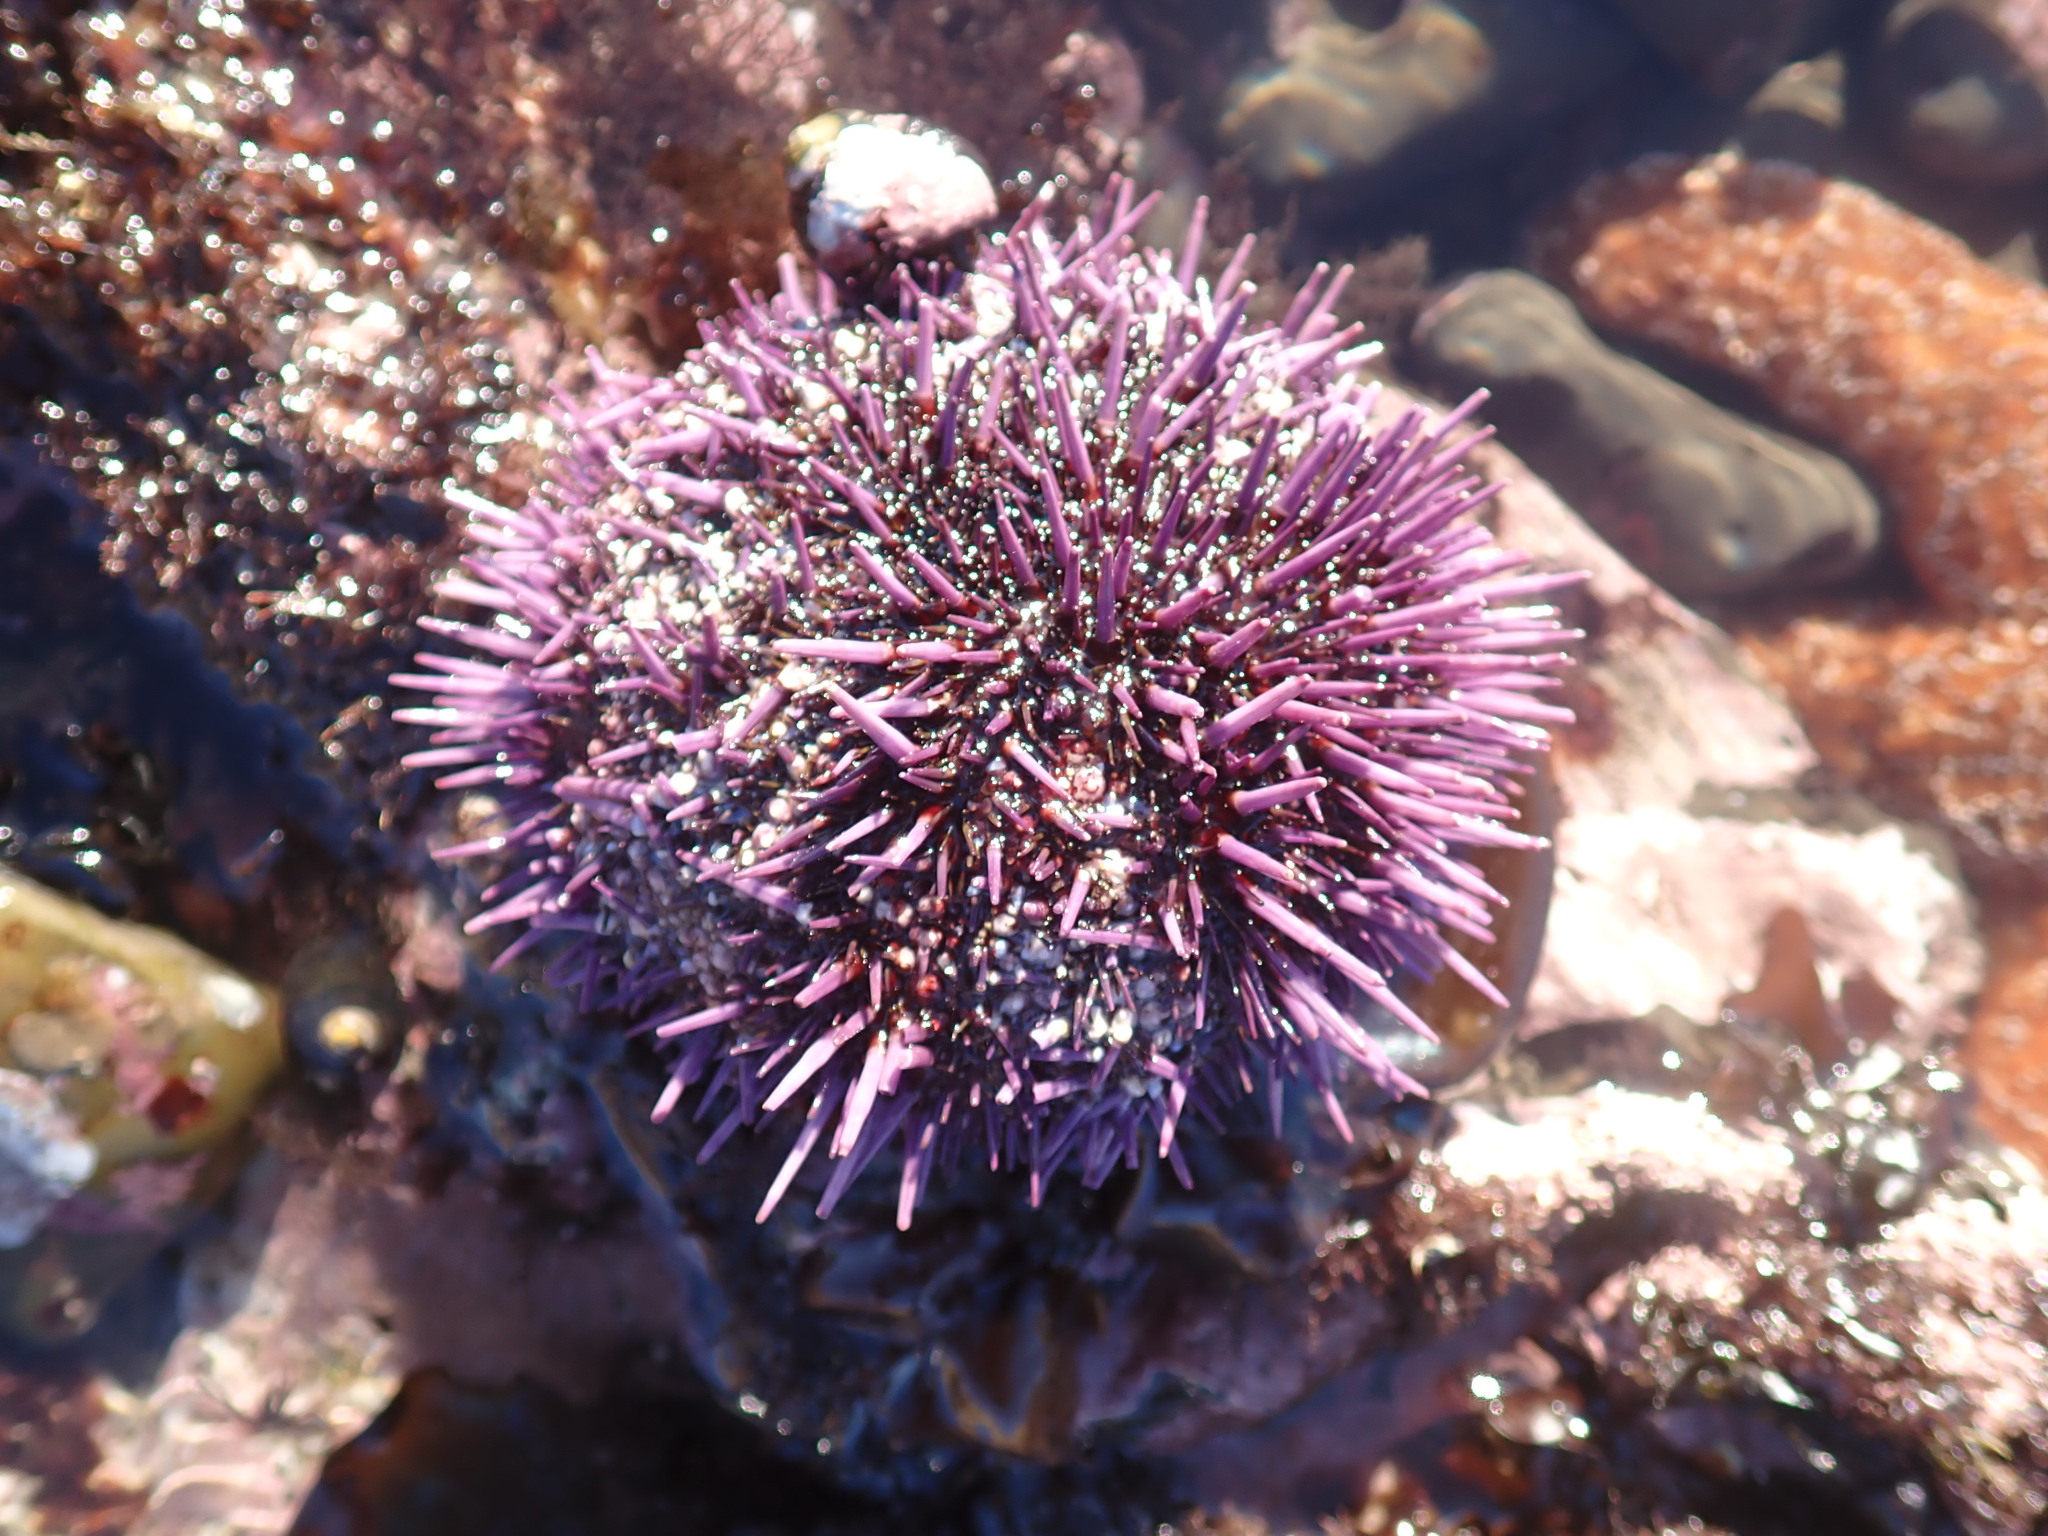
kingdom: Animalia
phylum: Echinodermata
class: Echinoidea
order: Camarodonta
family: Strongylocentrotidae
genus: Strongylocentrotus
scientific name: Strongylocentrotus purpuratus
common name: Purple sea urchin
